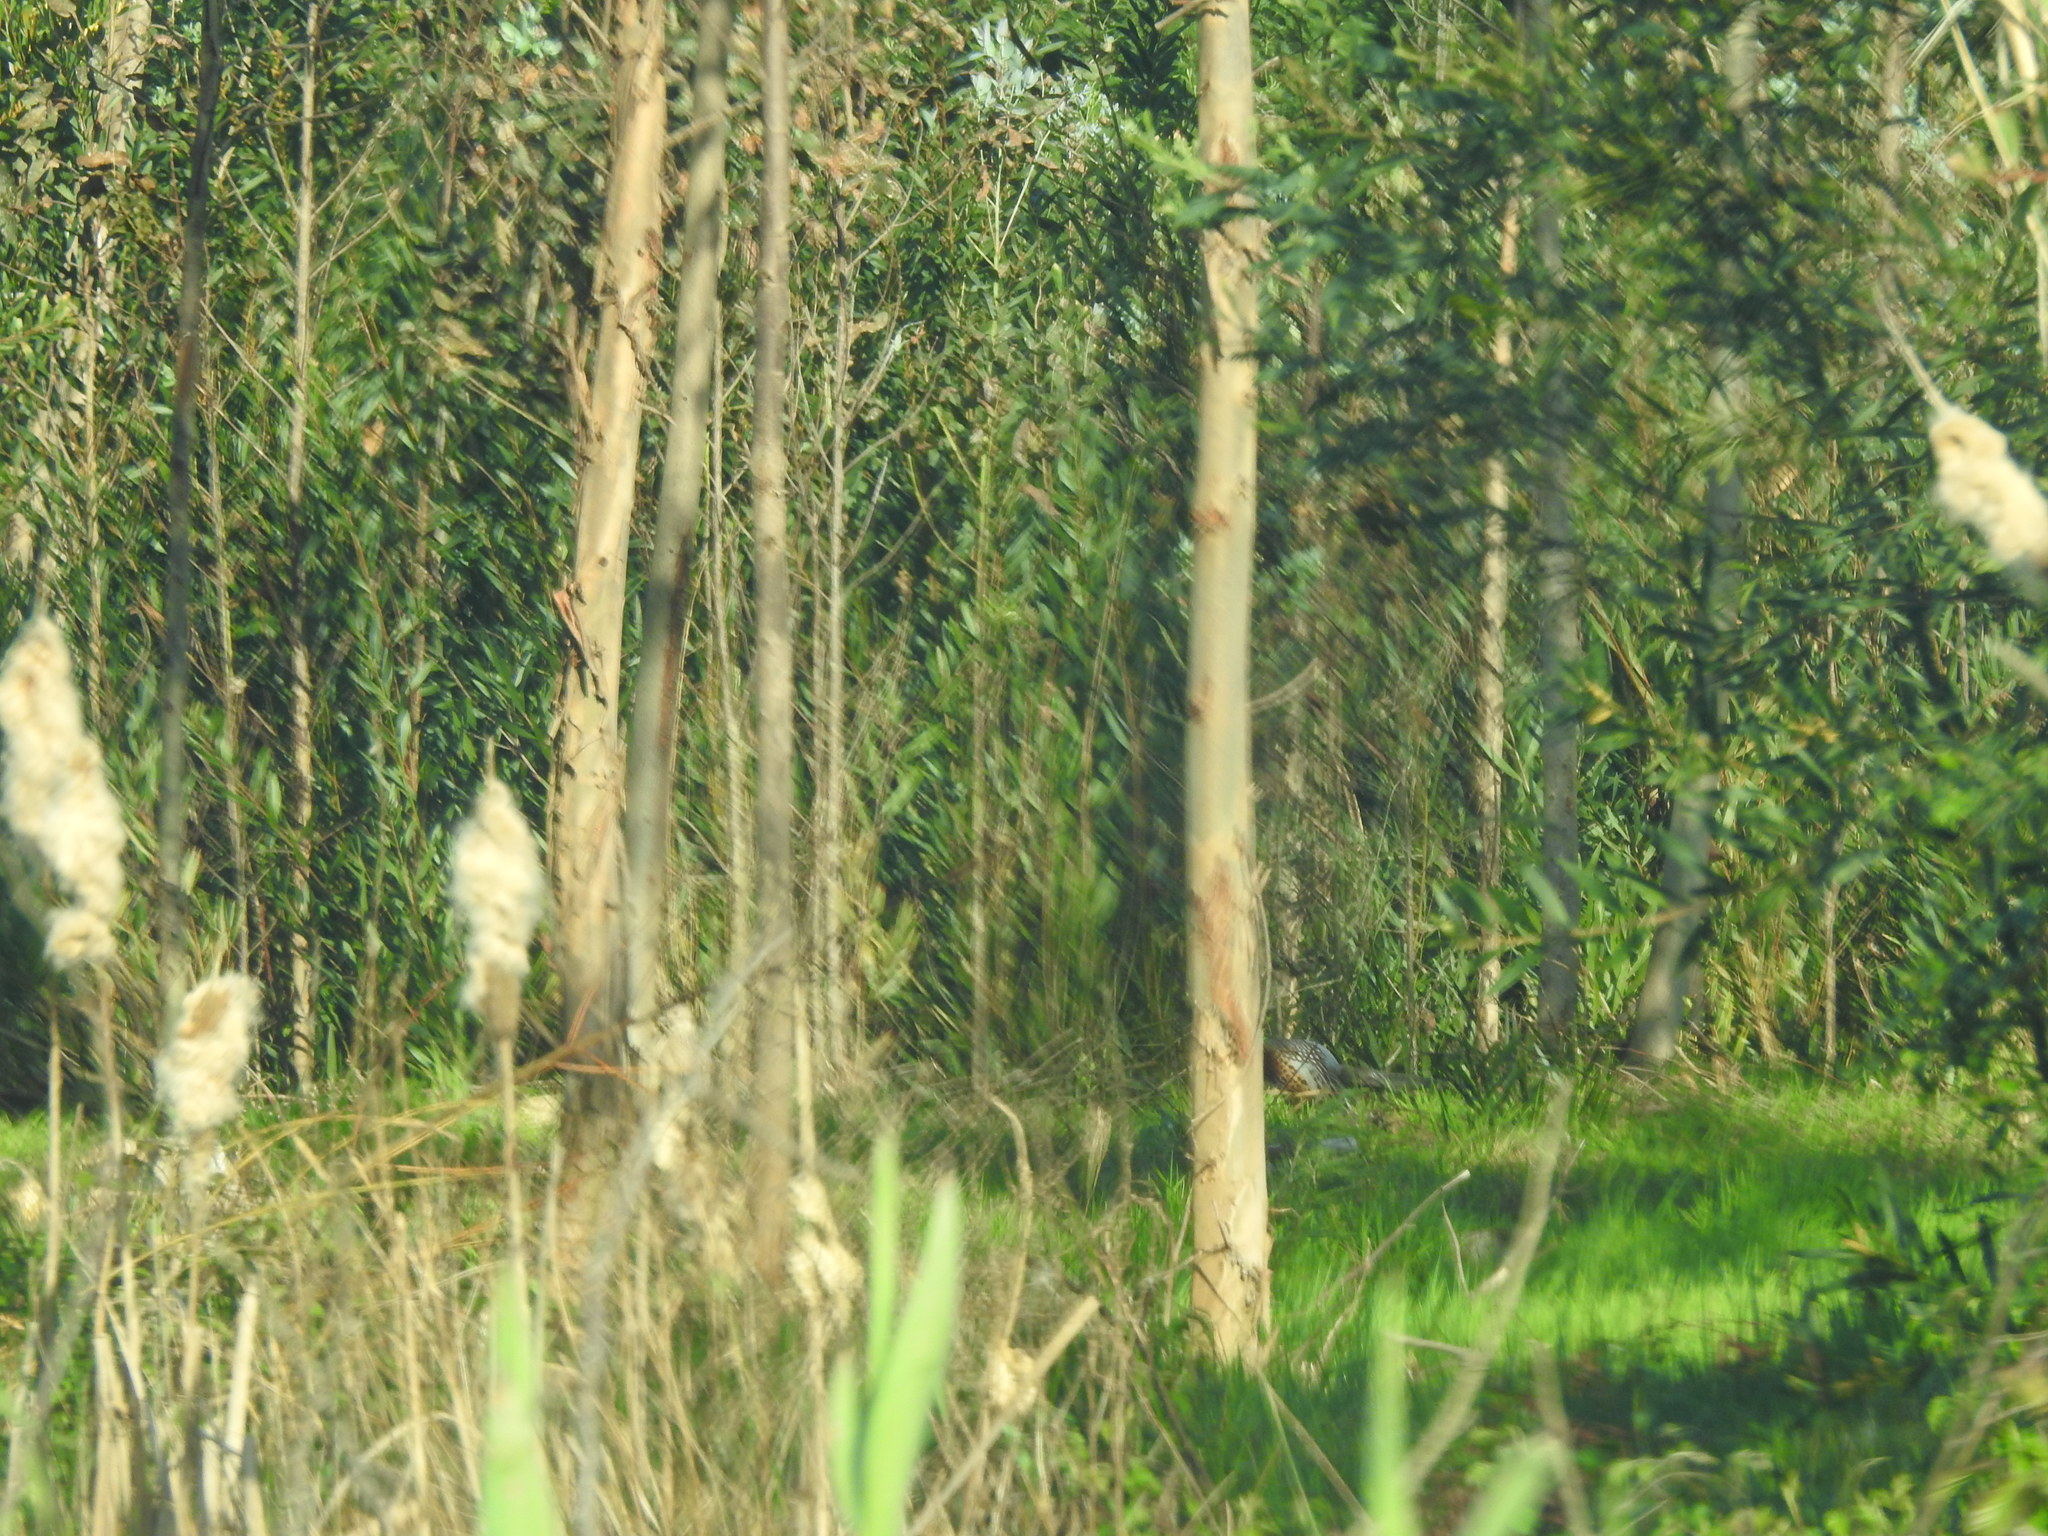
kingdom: Animalia
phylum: Chordata
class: Aves
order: Galliformes
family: Phasianidae
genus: Phasianus
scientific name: Phasianus colchicus
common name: Common pheasant
